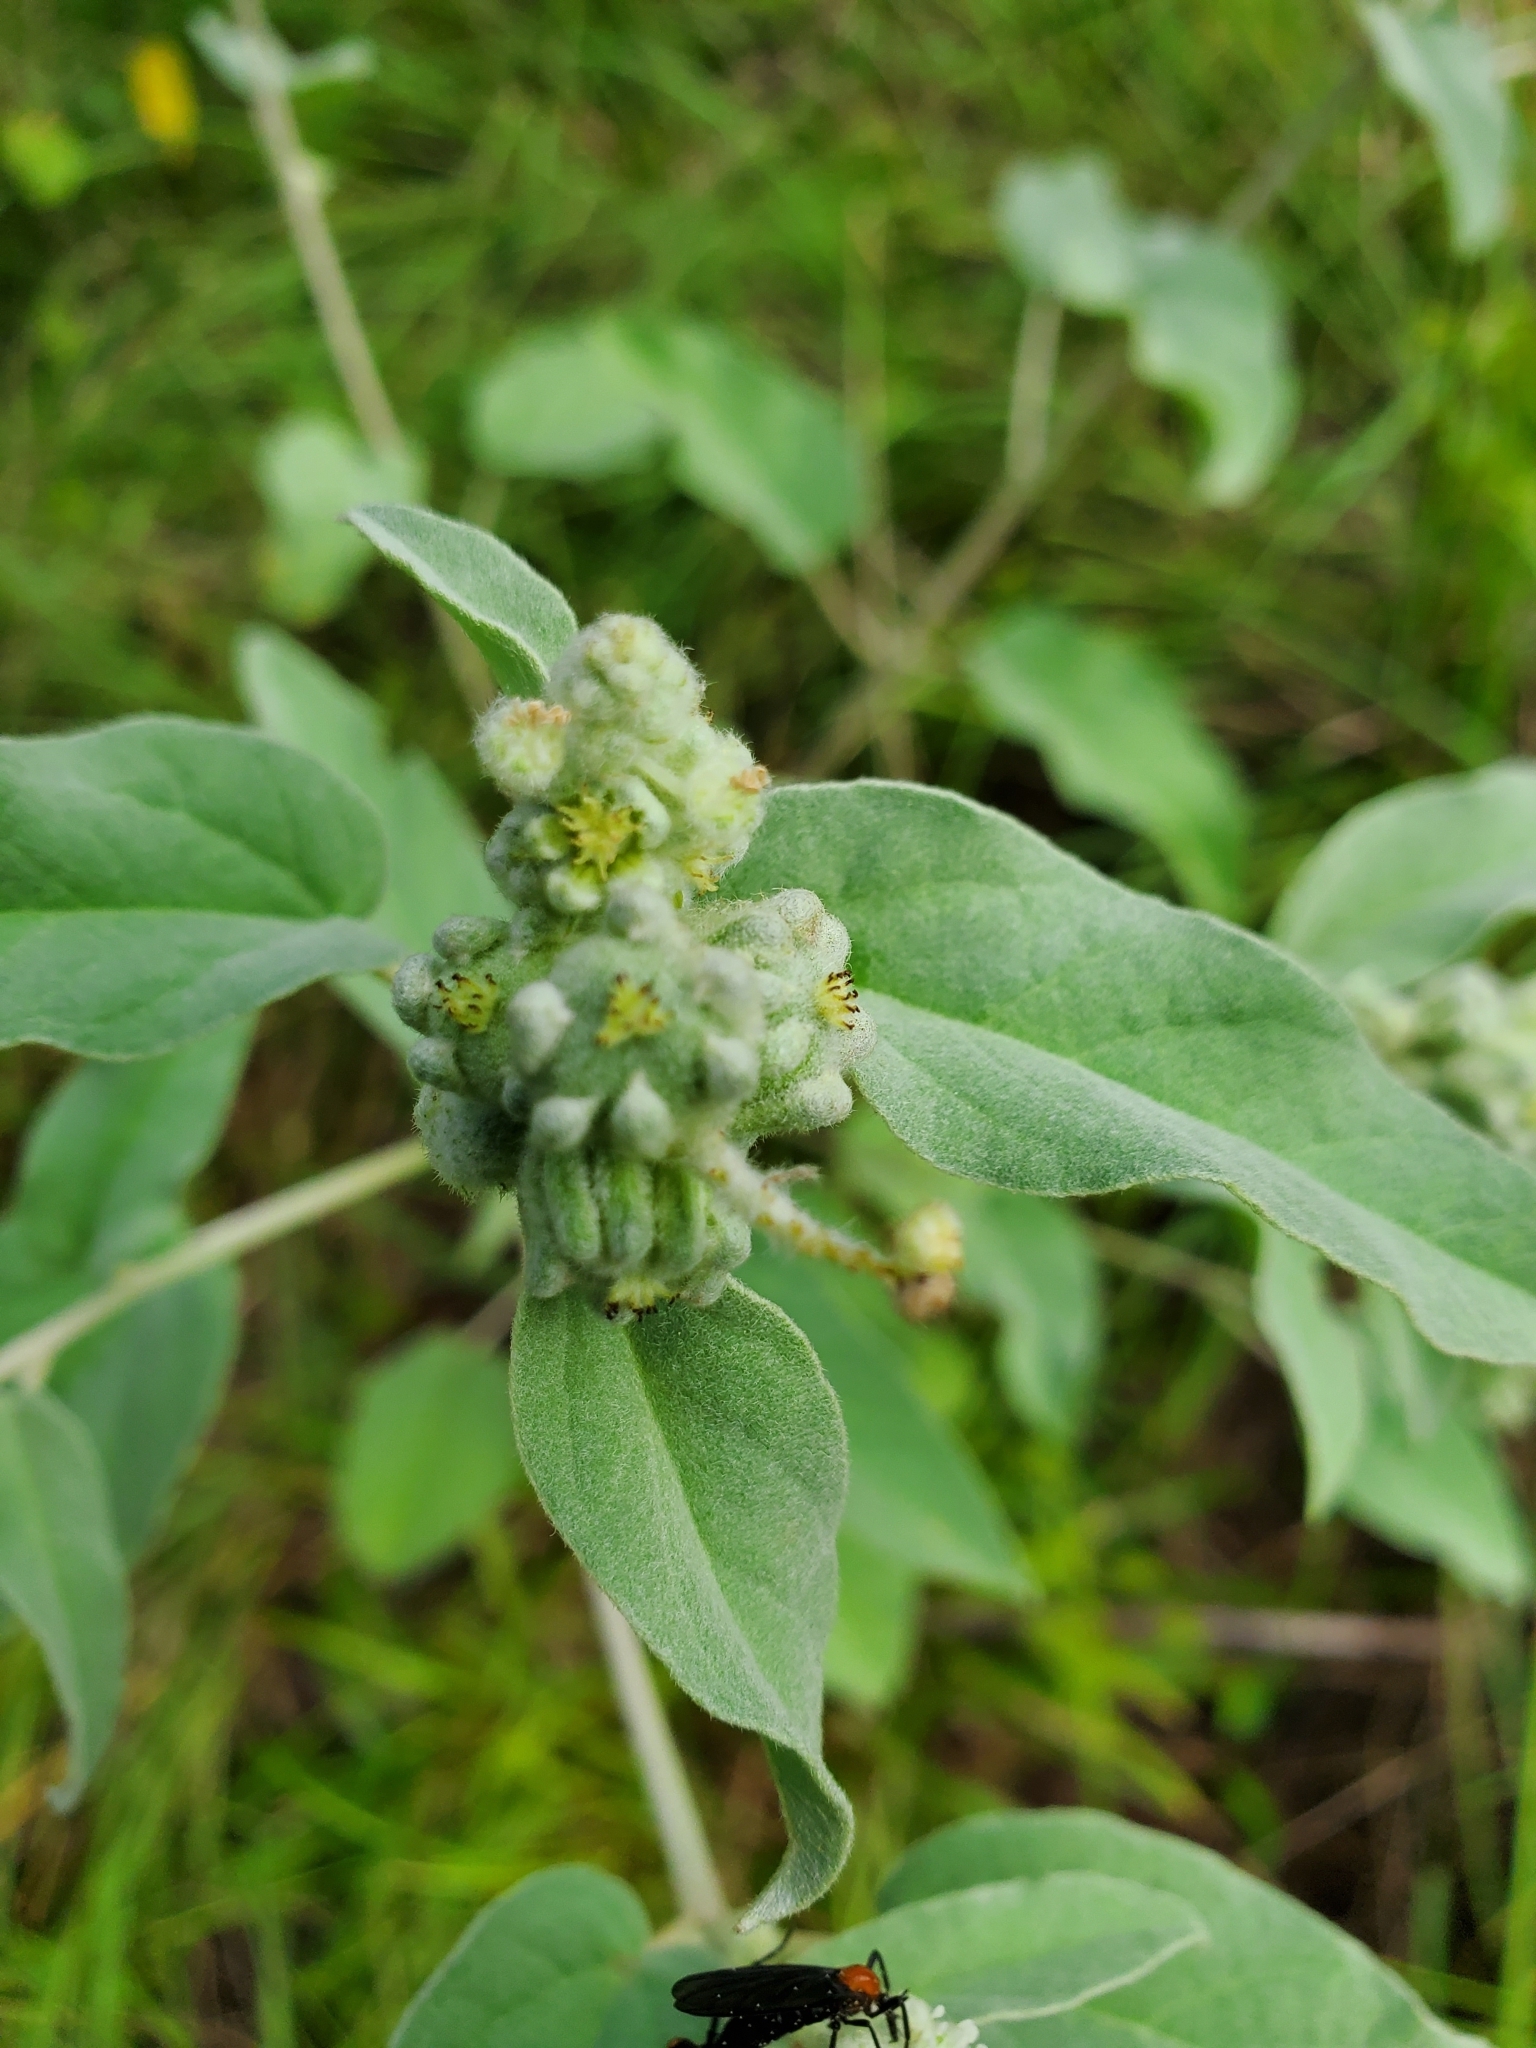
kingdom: Plantae
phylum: Tracheophyta
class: Magnoliopsida
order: Malpighiales
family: Euphorbiaceae
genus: Croton
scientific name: Croton lindheimeri
